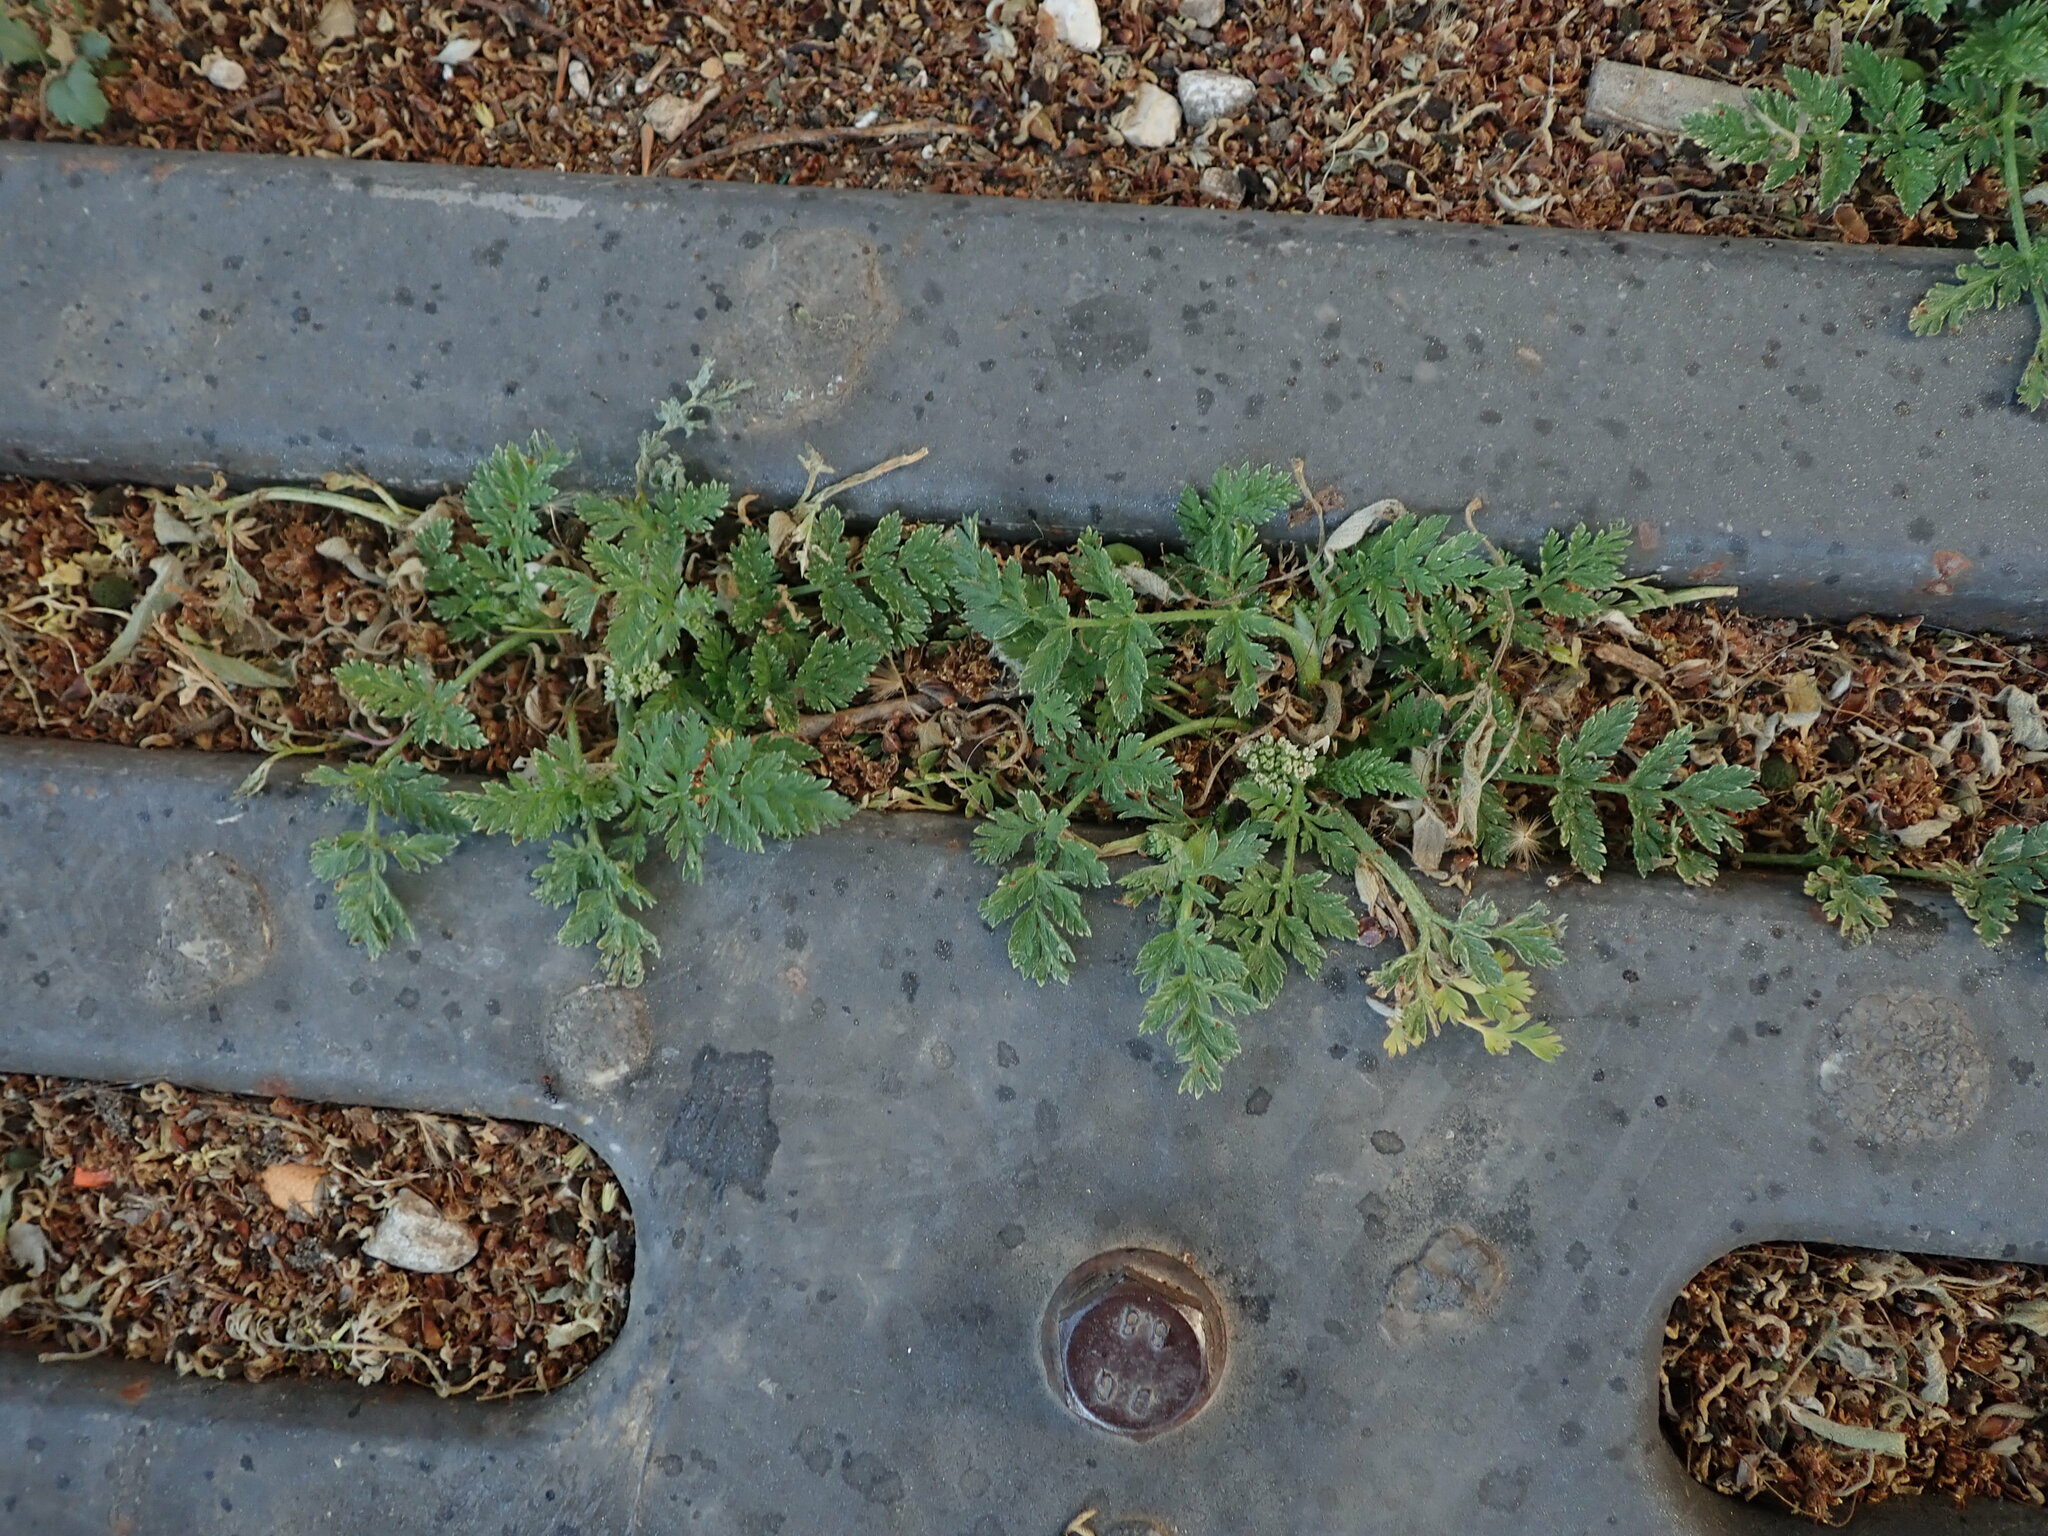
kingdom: Plantae
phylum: Tracheophyta
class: Magnoliopsida
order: Geraniales
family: Geraniaceae
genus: Erodium
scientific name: Erodium cicutarium
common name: Common stork's-bill
